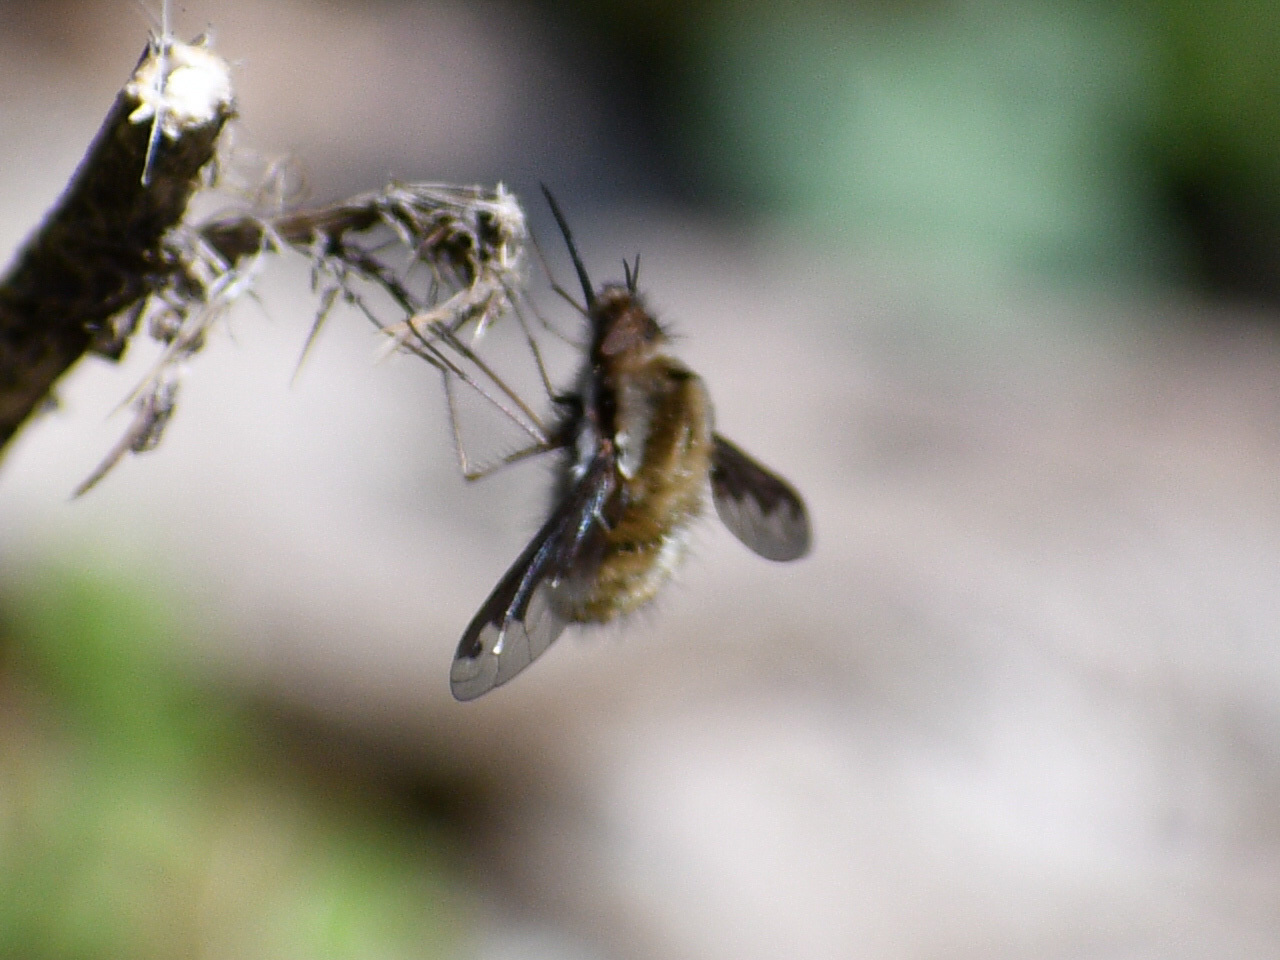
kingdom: Animalia
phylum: Arthropoda
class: Insecta
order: Diptera
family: Bombyliidae
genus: Bombylius
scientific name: Bombylius major
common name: Bee fly
